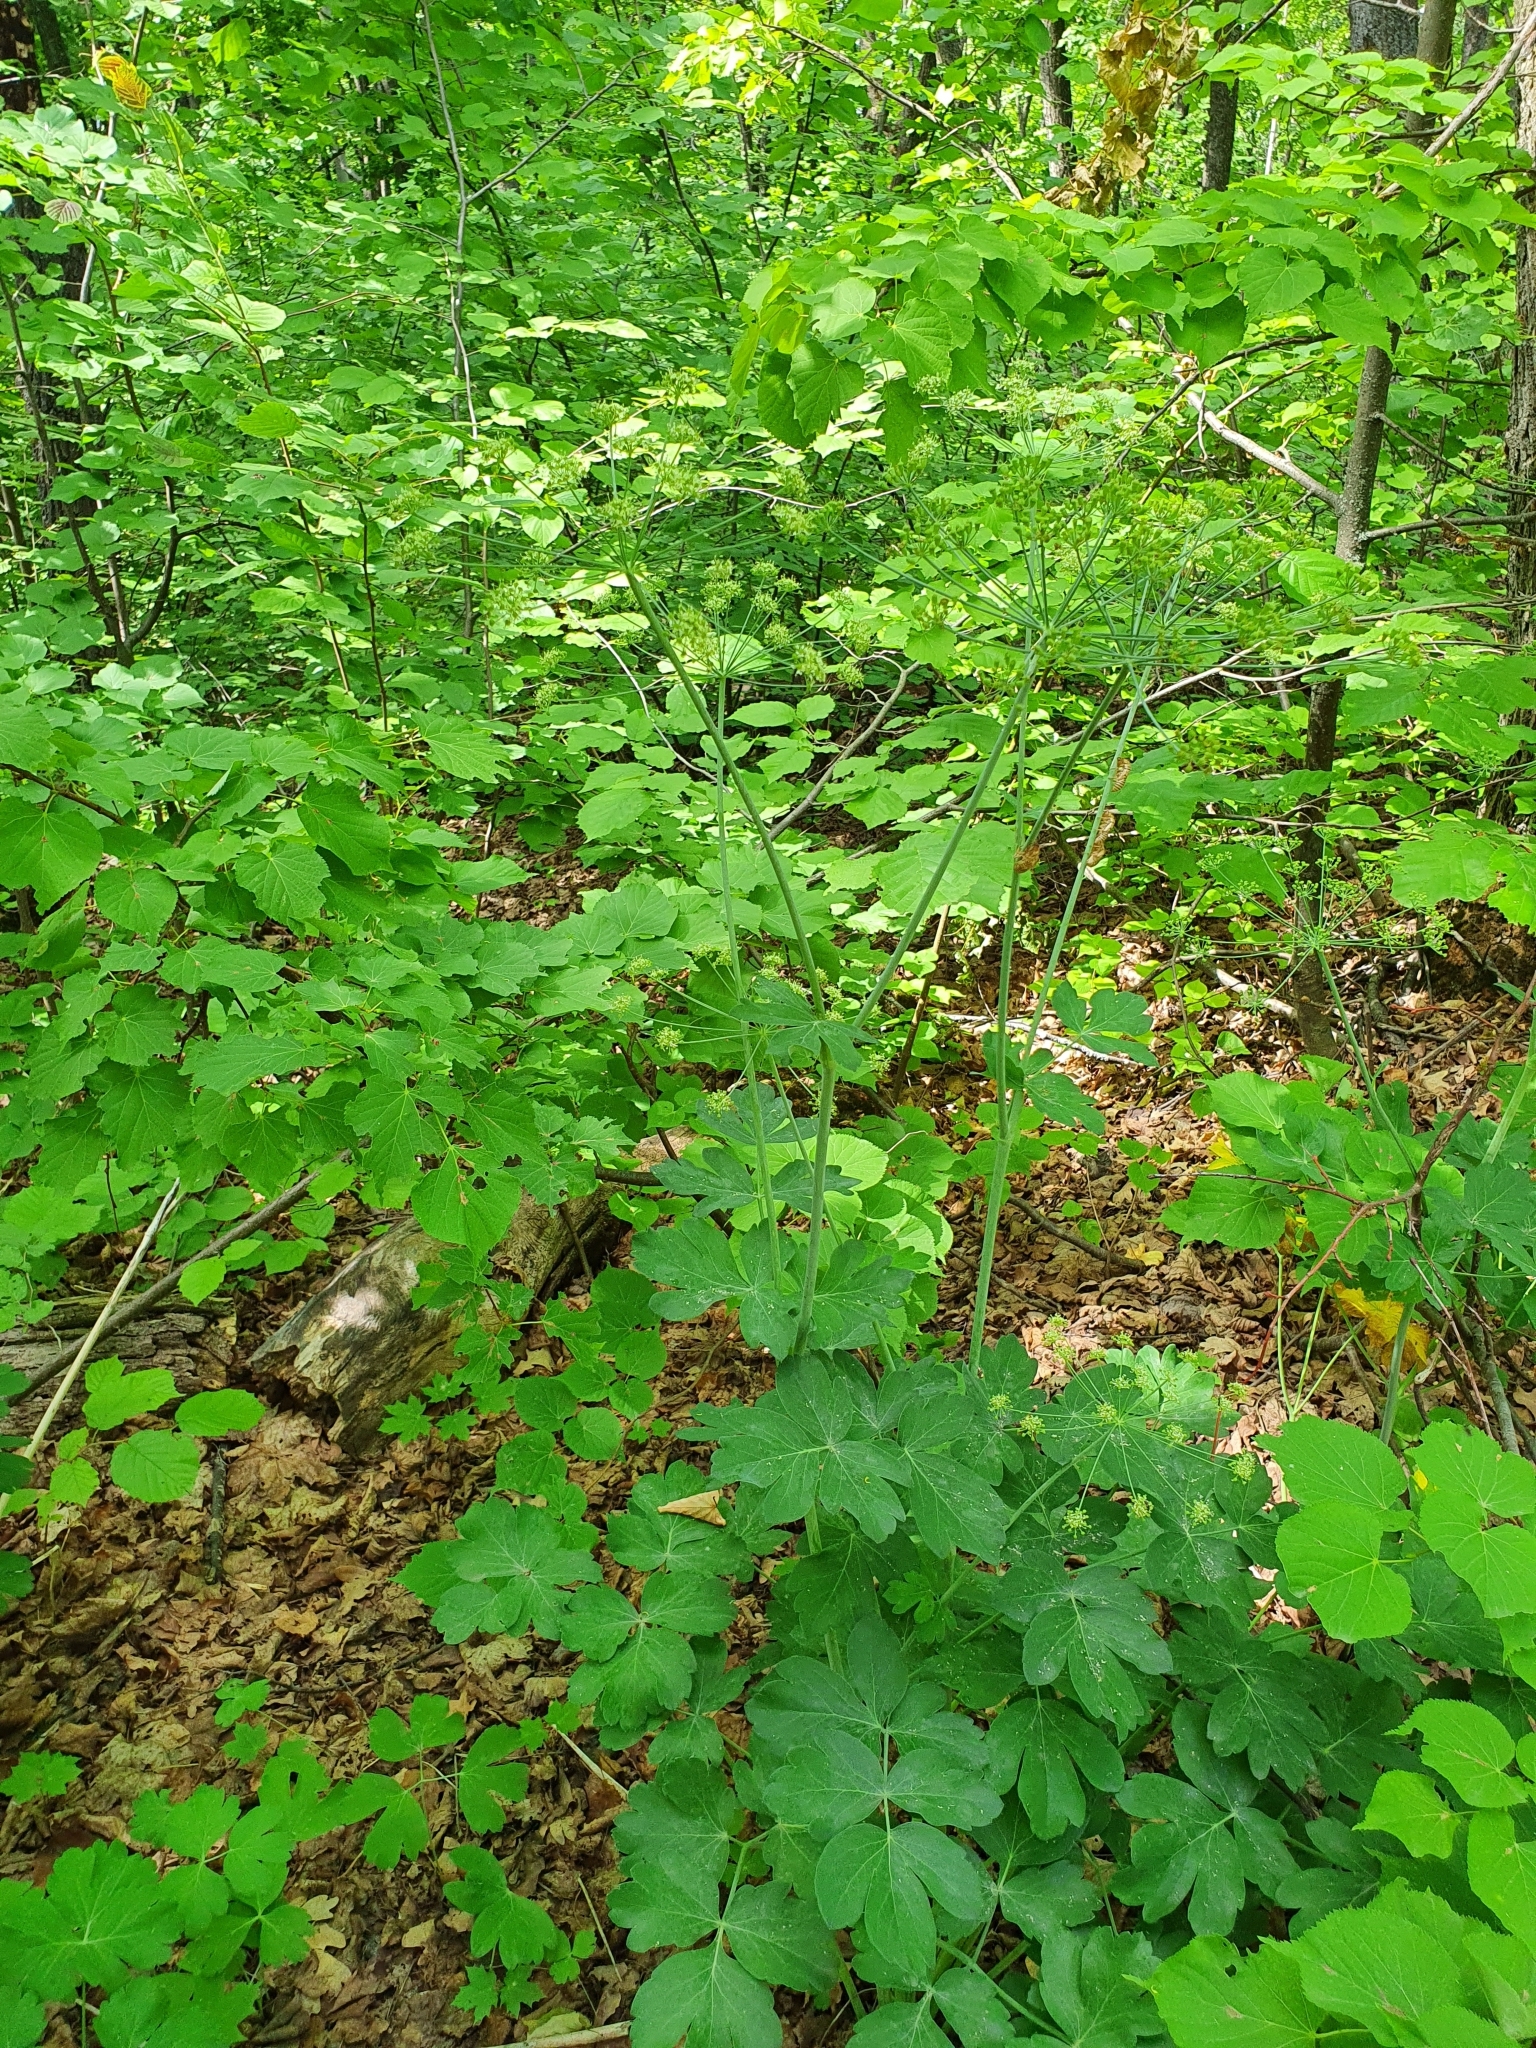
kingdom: Plantae
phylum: Tracheophyta
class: Magnoliopsida
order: Apiales
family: Apiaceae
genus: Laser
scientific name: Laser trilobum
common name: Laser
